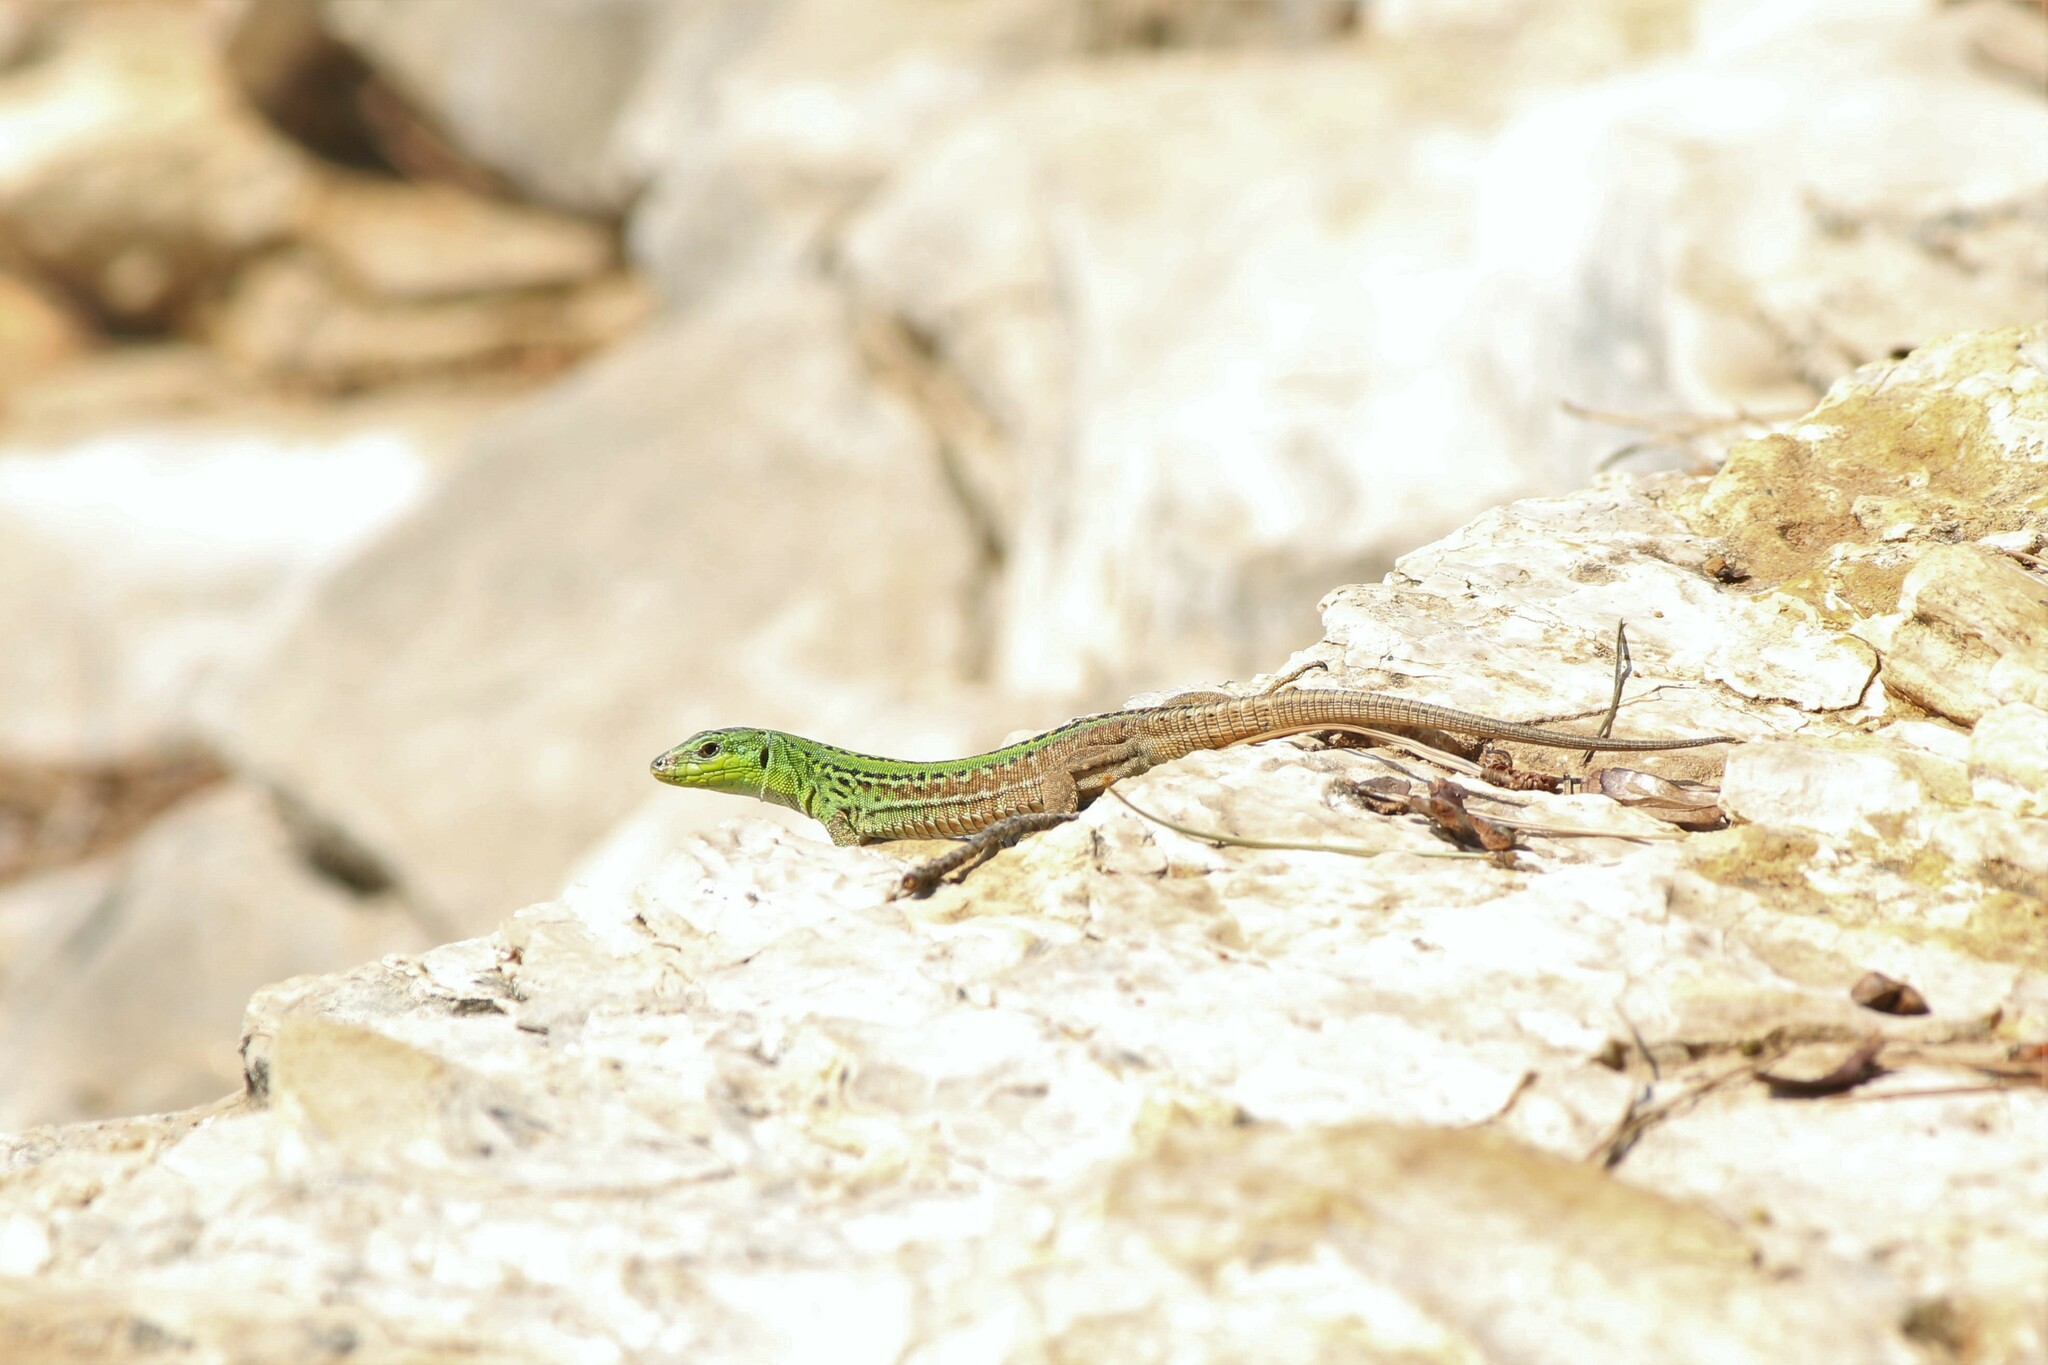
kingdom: Animalia
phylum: Chordata
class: Squamata
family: Lacertidae
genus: Podarcis
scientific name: Podarcis siculus
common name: Italian wall lizard
